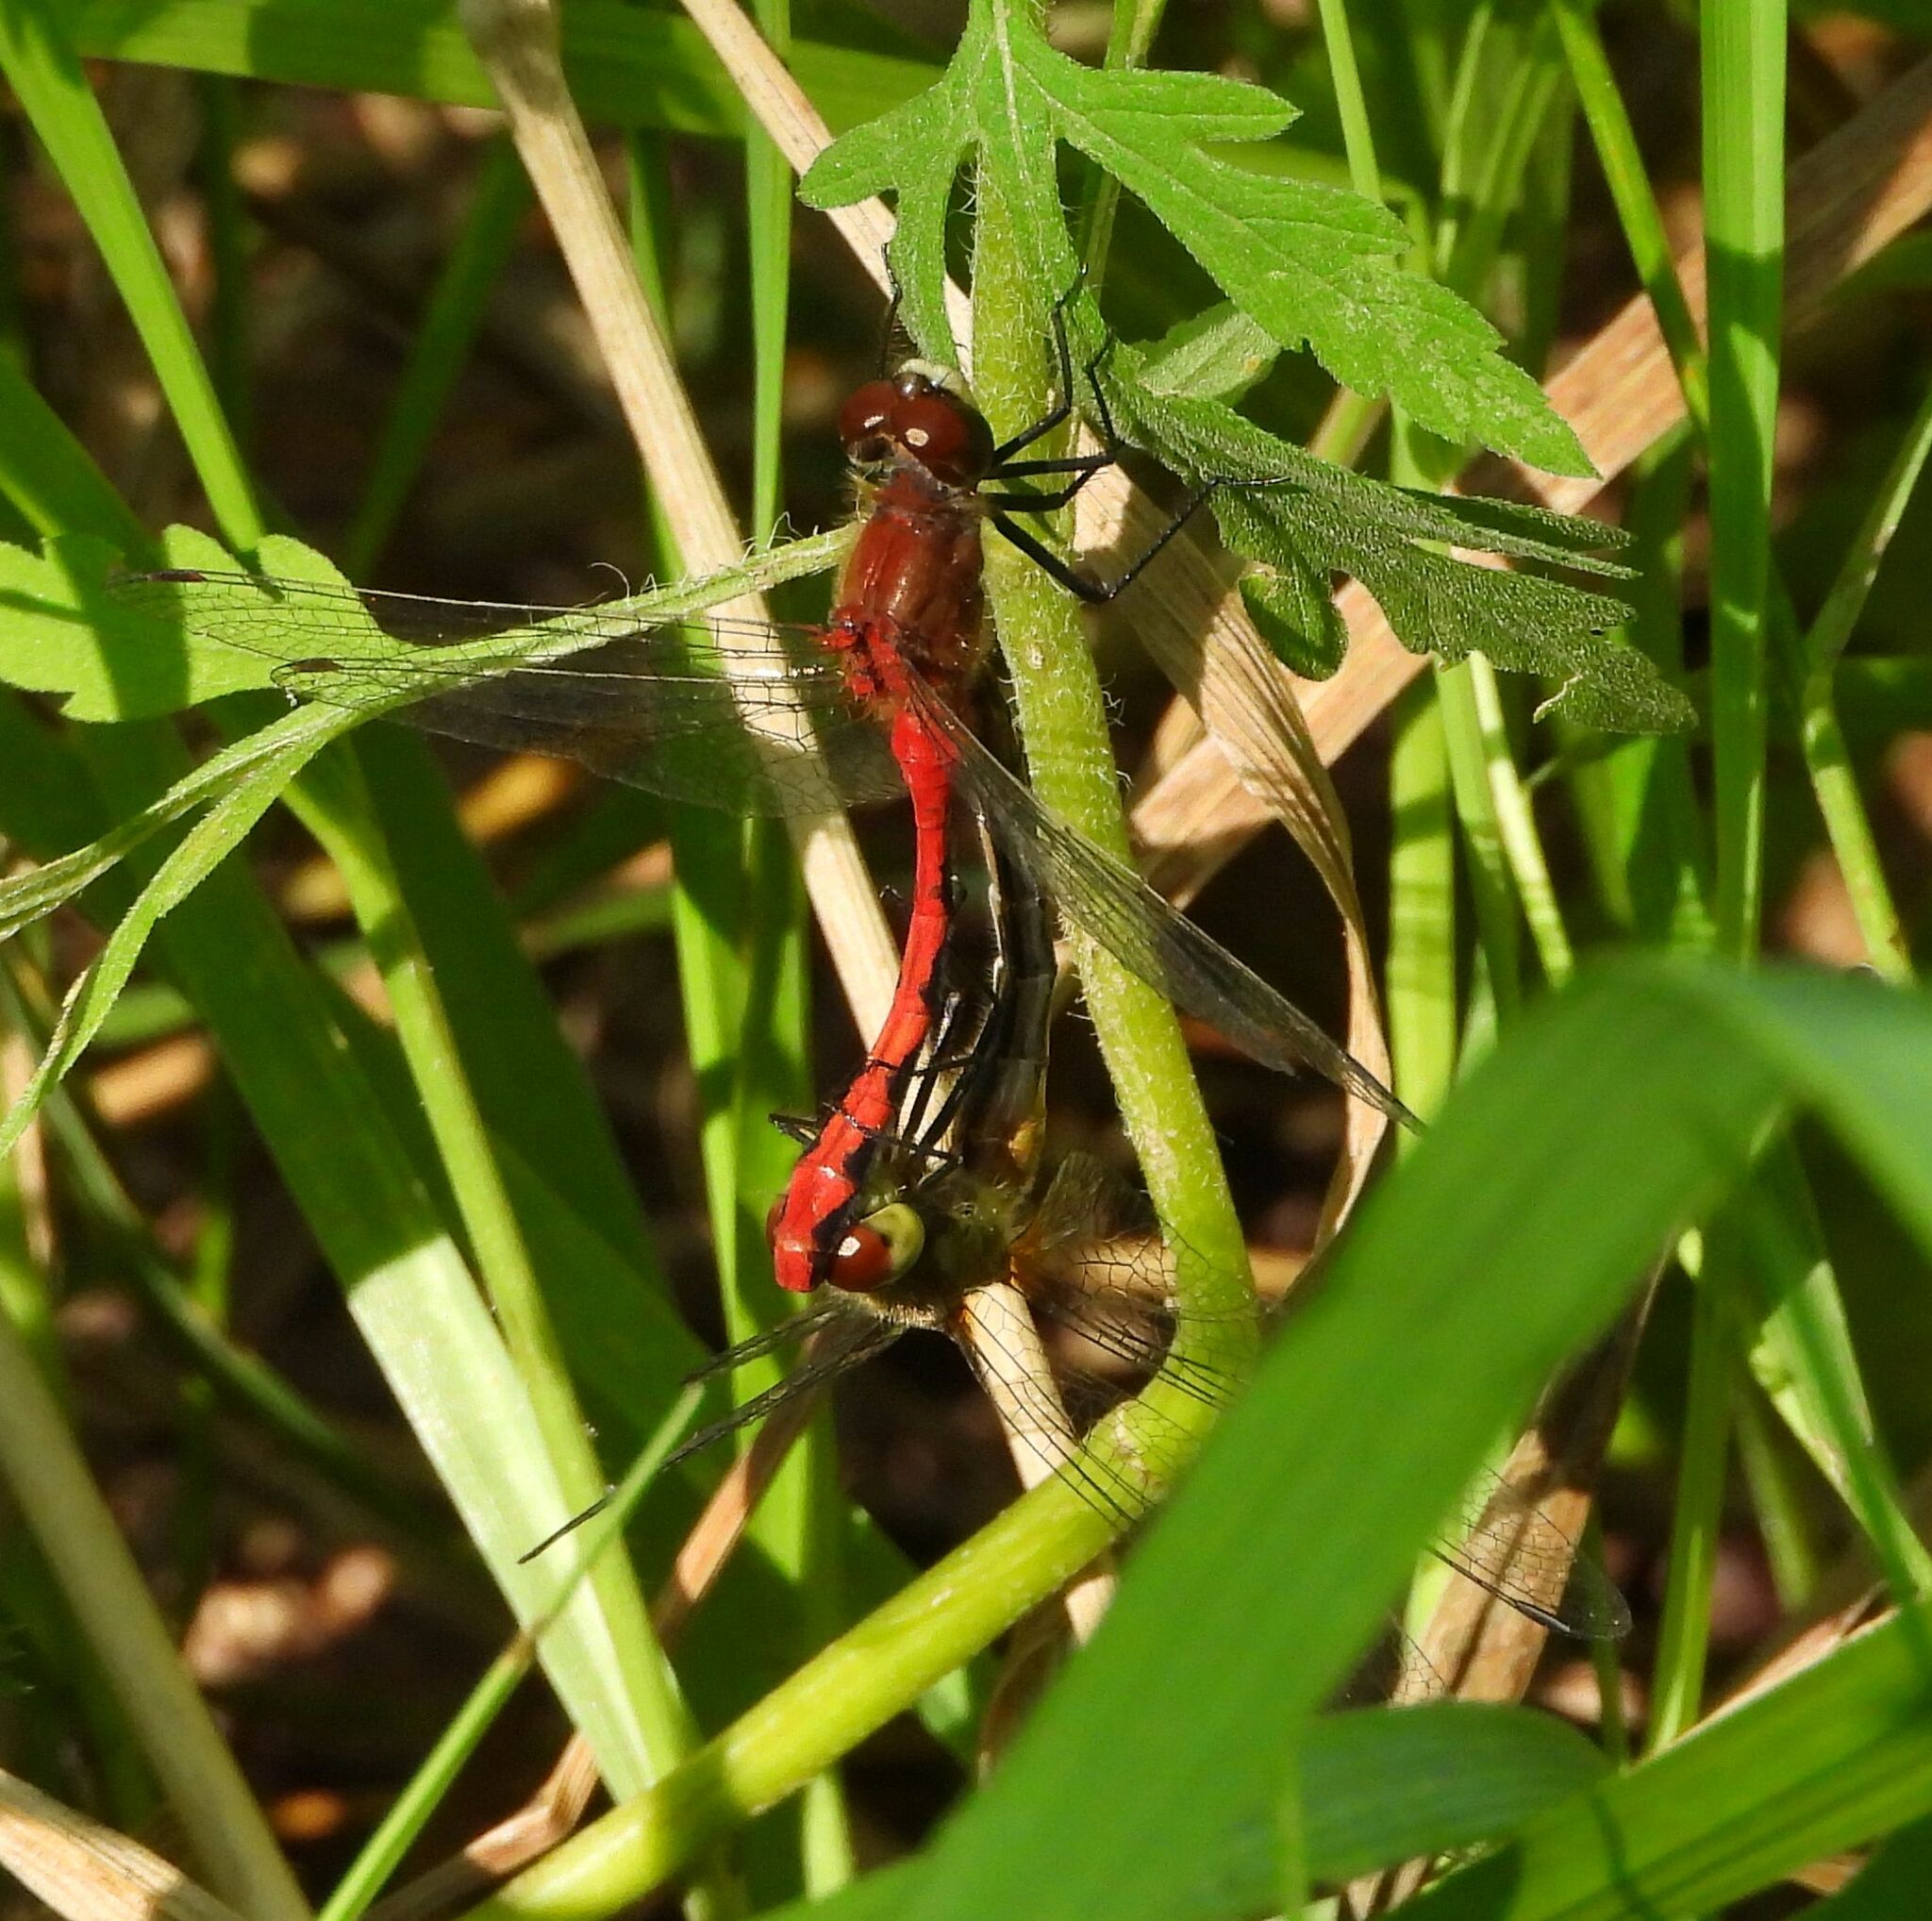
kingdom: Animalia
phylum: Arthropoda
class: Insecta
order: Odonata
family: Libellulidae
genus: Sympetrum
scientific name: Sympetrum obtrusum
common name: White-faced meadowhawk
